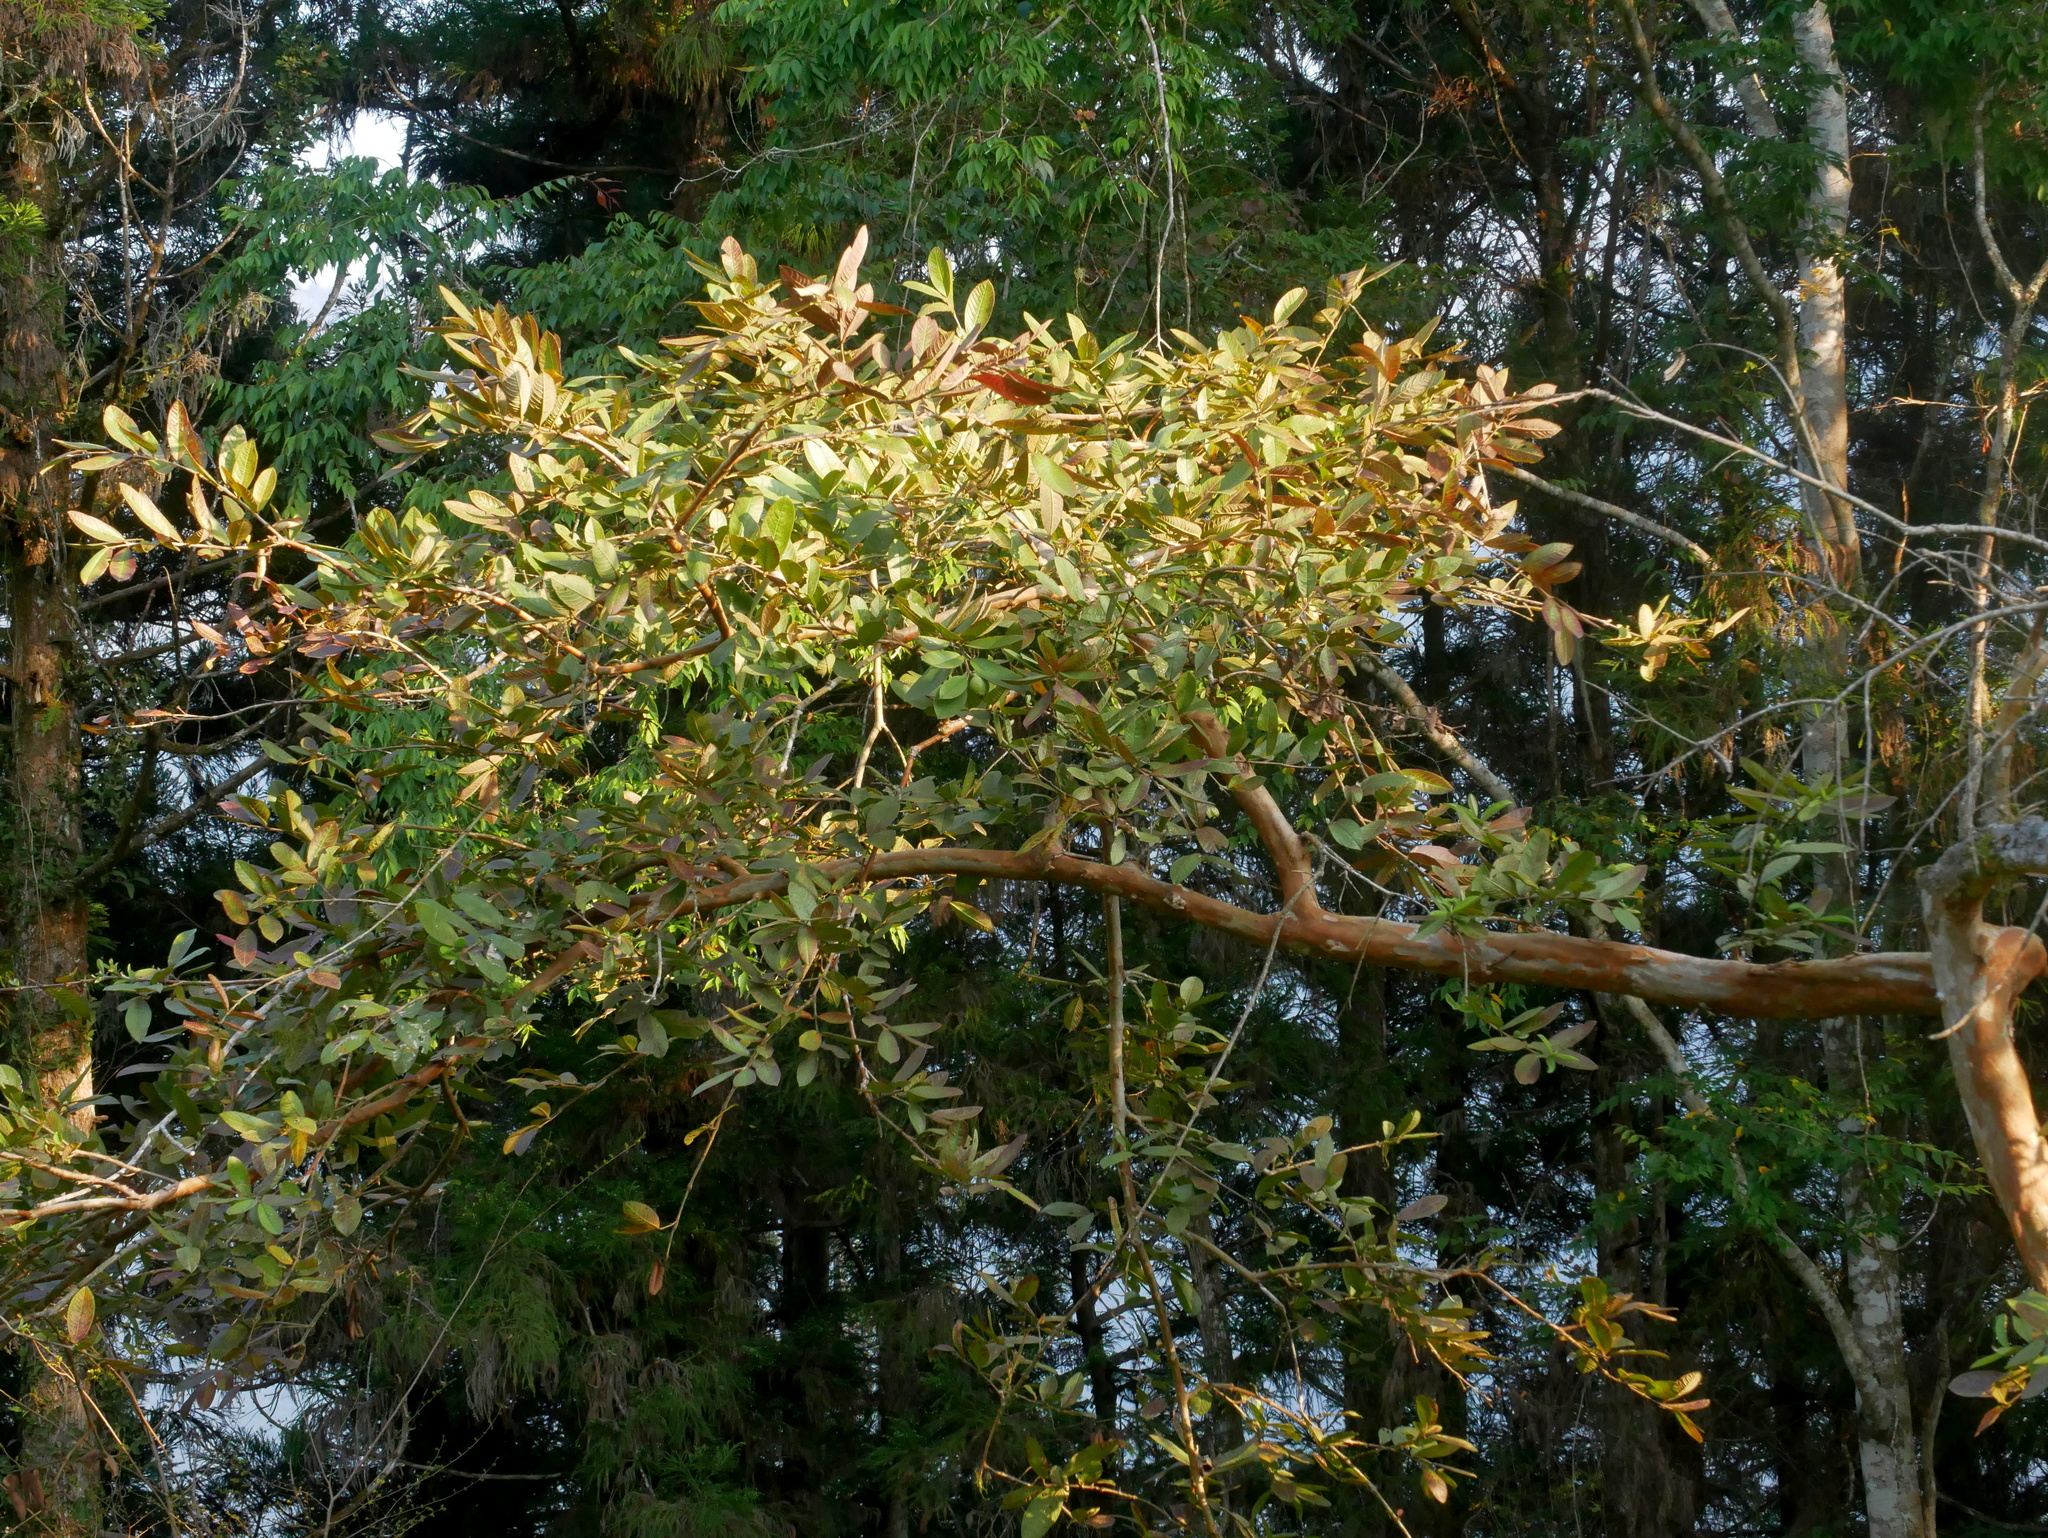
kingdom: Plantae
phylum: Tracheophyta
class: Magnoliopsida
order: Myrtales
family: Myrtaceae
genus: Psidium
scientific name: Psidium guajava
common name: Guava
